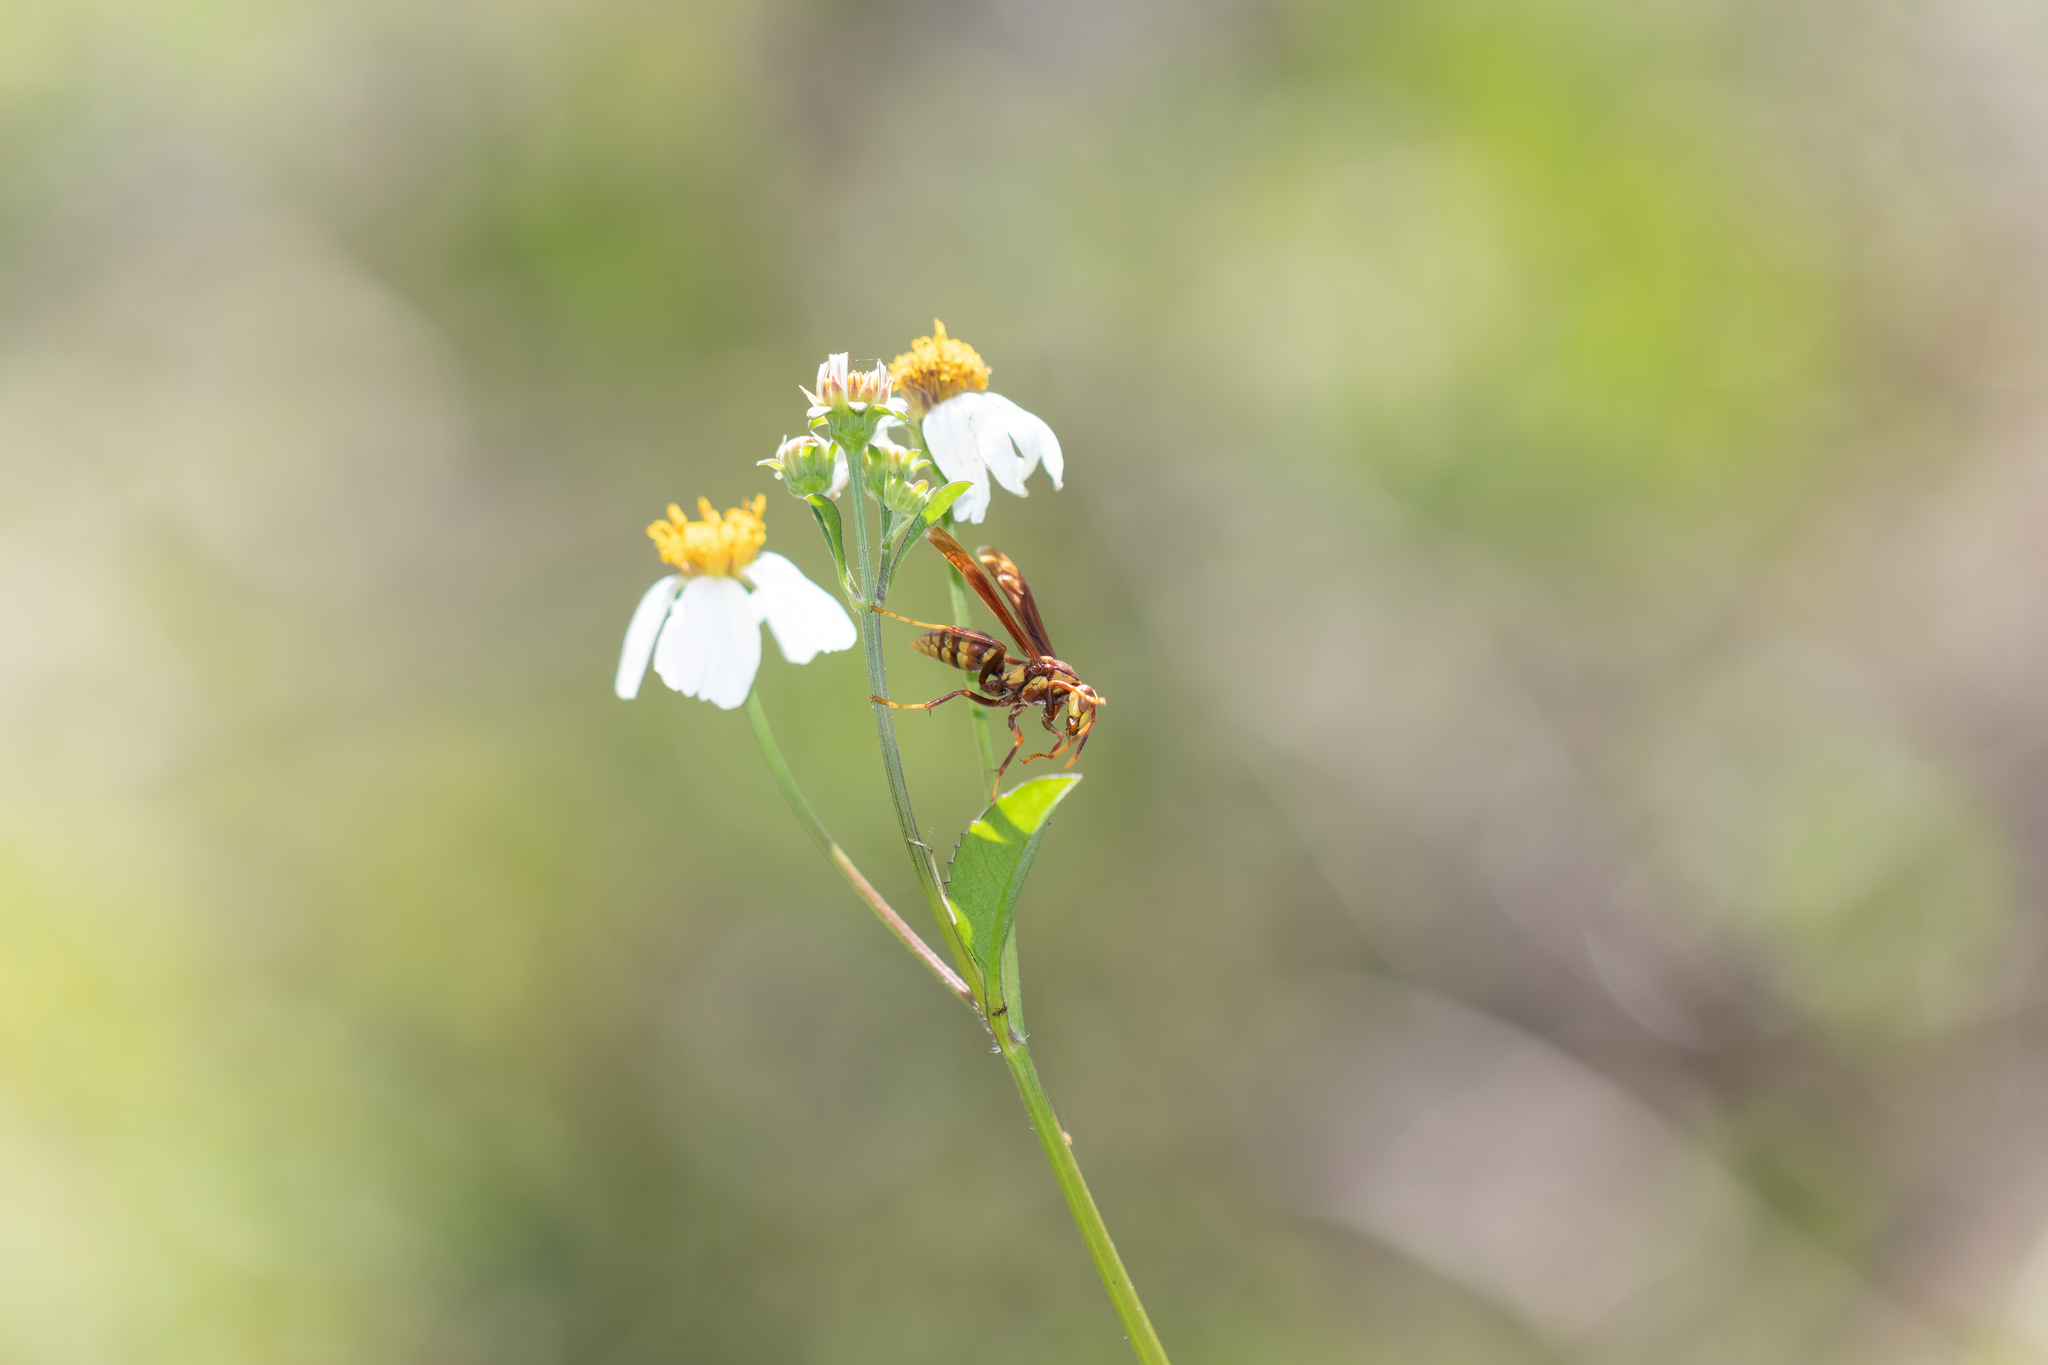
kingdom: Animalia
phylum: Arthropoda
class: Insecta
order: Hymenoptera
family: Eumenidae
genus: Polistes
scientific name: Polistes major
